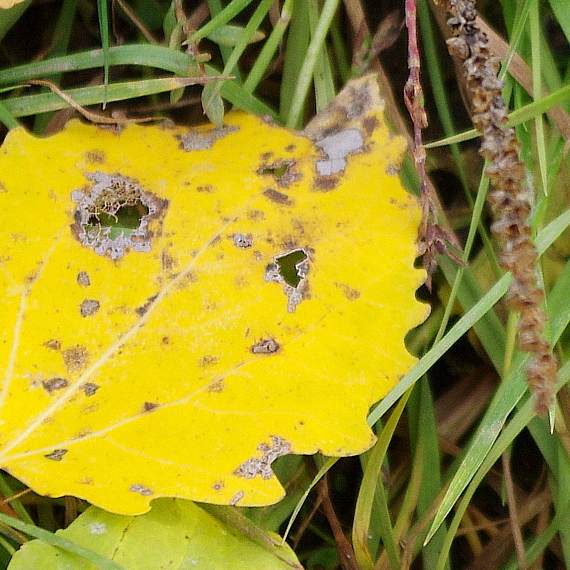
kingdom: Plantae
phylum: Tracheophyta
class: Magnoliopsida
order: Malpighiales
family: Salicaceae
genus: Populus
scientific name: Populus tremula
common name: European aspen
